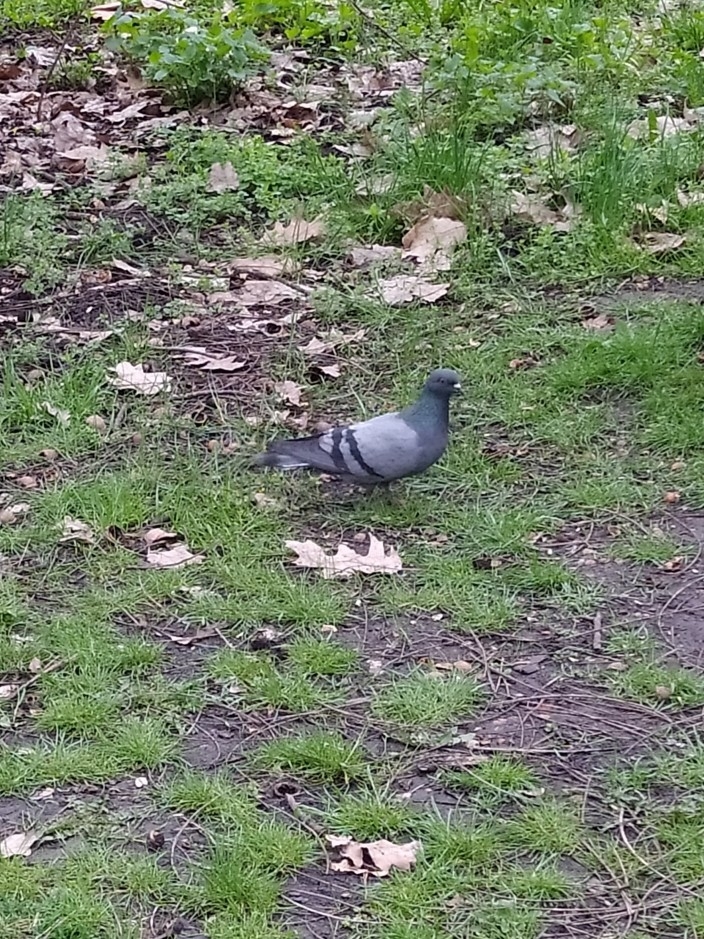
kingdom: Animalia
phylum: Chordata
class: Aves
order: Columbiformes
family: Columbidae
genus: Columba
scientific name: Columba livia
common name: Rock pigeon
